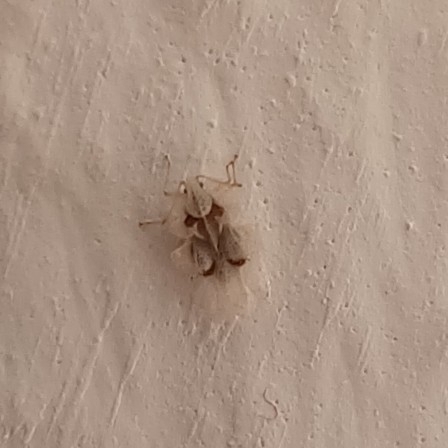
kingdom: Animalia
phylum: Arthropoda
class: Insecta
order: Hemiptera
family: Tingidae
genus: Corythucha
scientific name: Corythucha ciliata
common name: Sycamore lace bug
